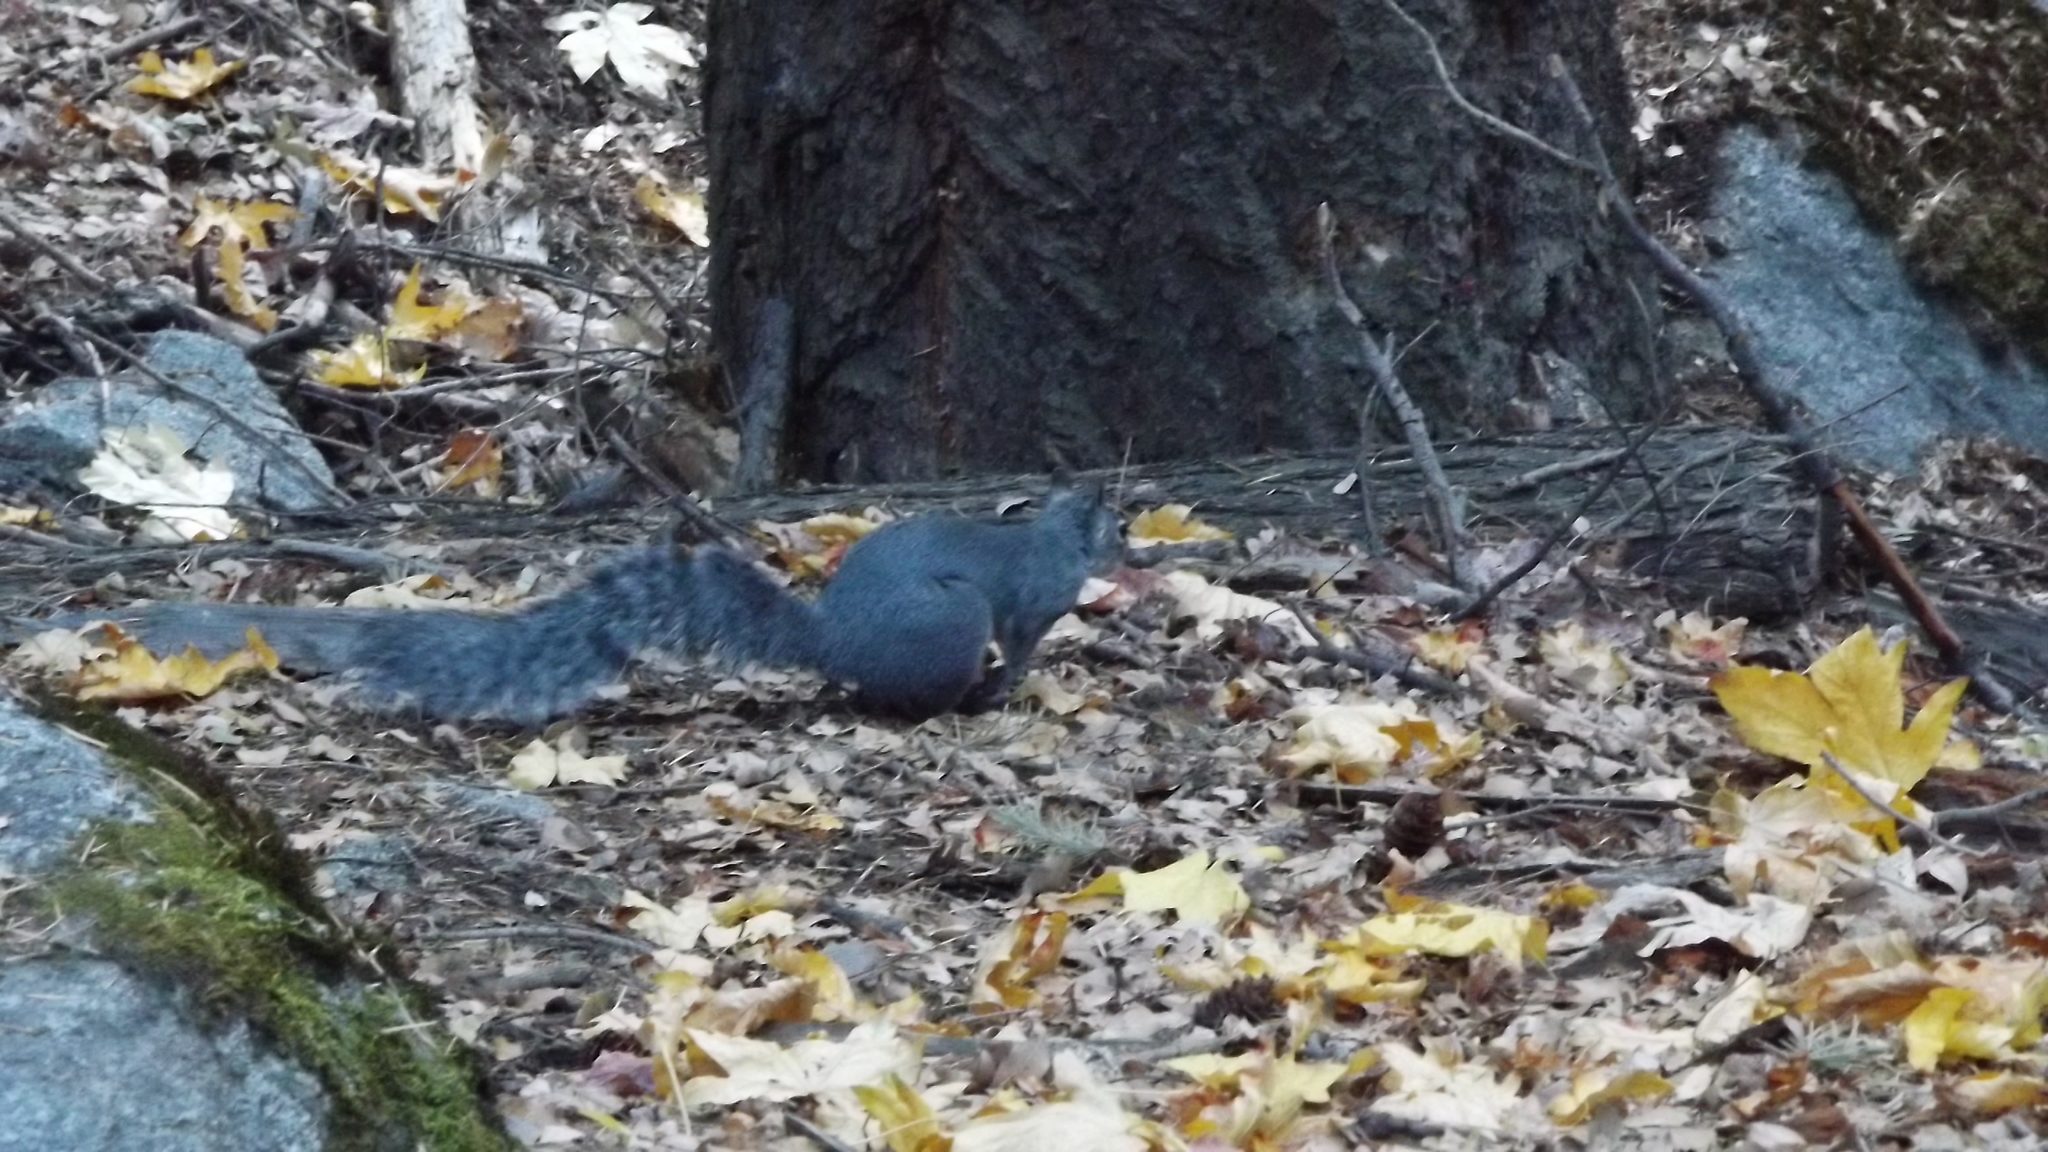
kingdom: Animalia
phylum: Chordata
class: Mammalia
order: Rodentia
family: Sciuridae
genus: Sciurus
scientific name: Sciurus griseus
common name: Western gray squirrel
